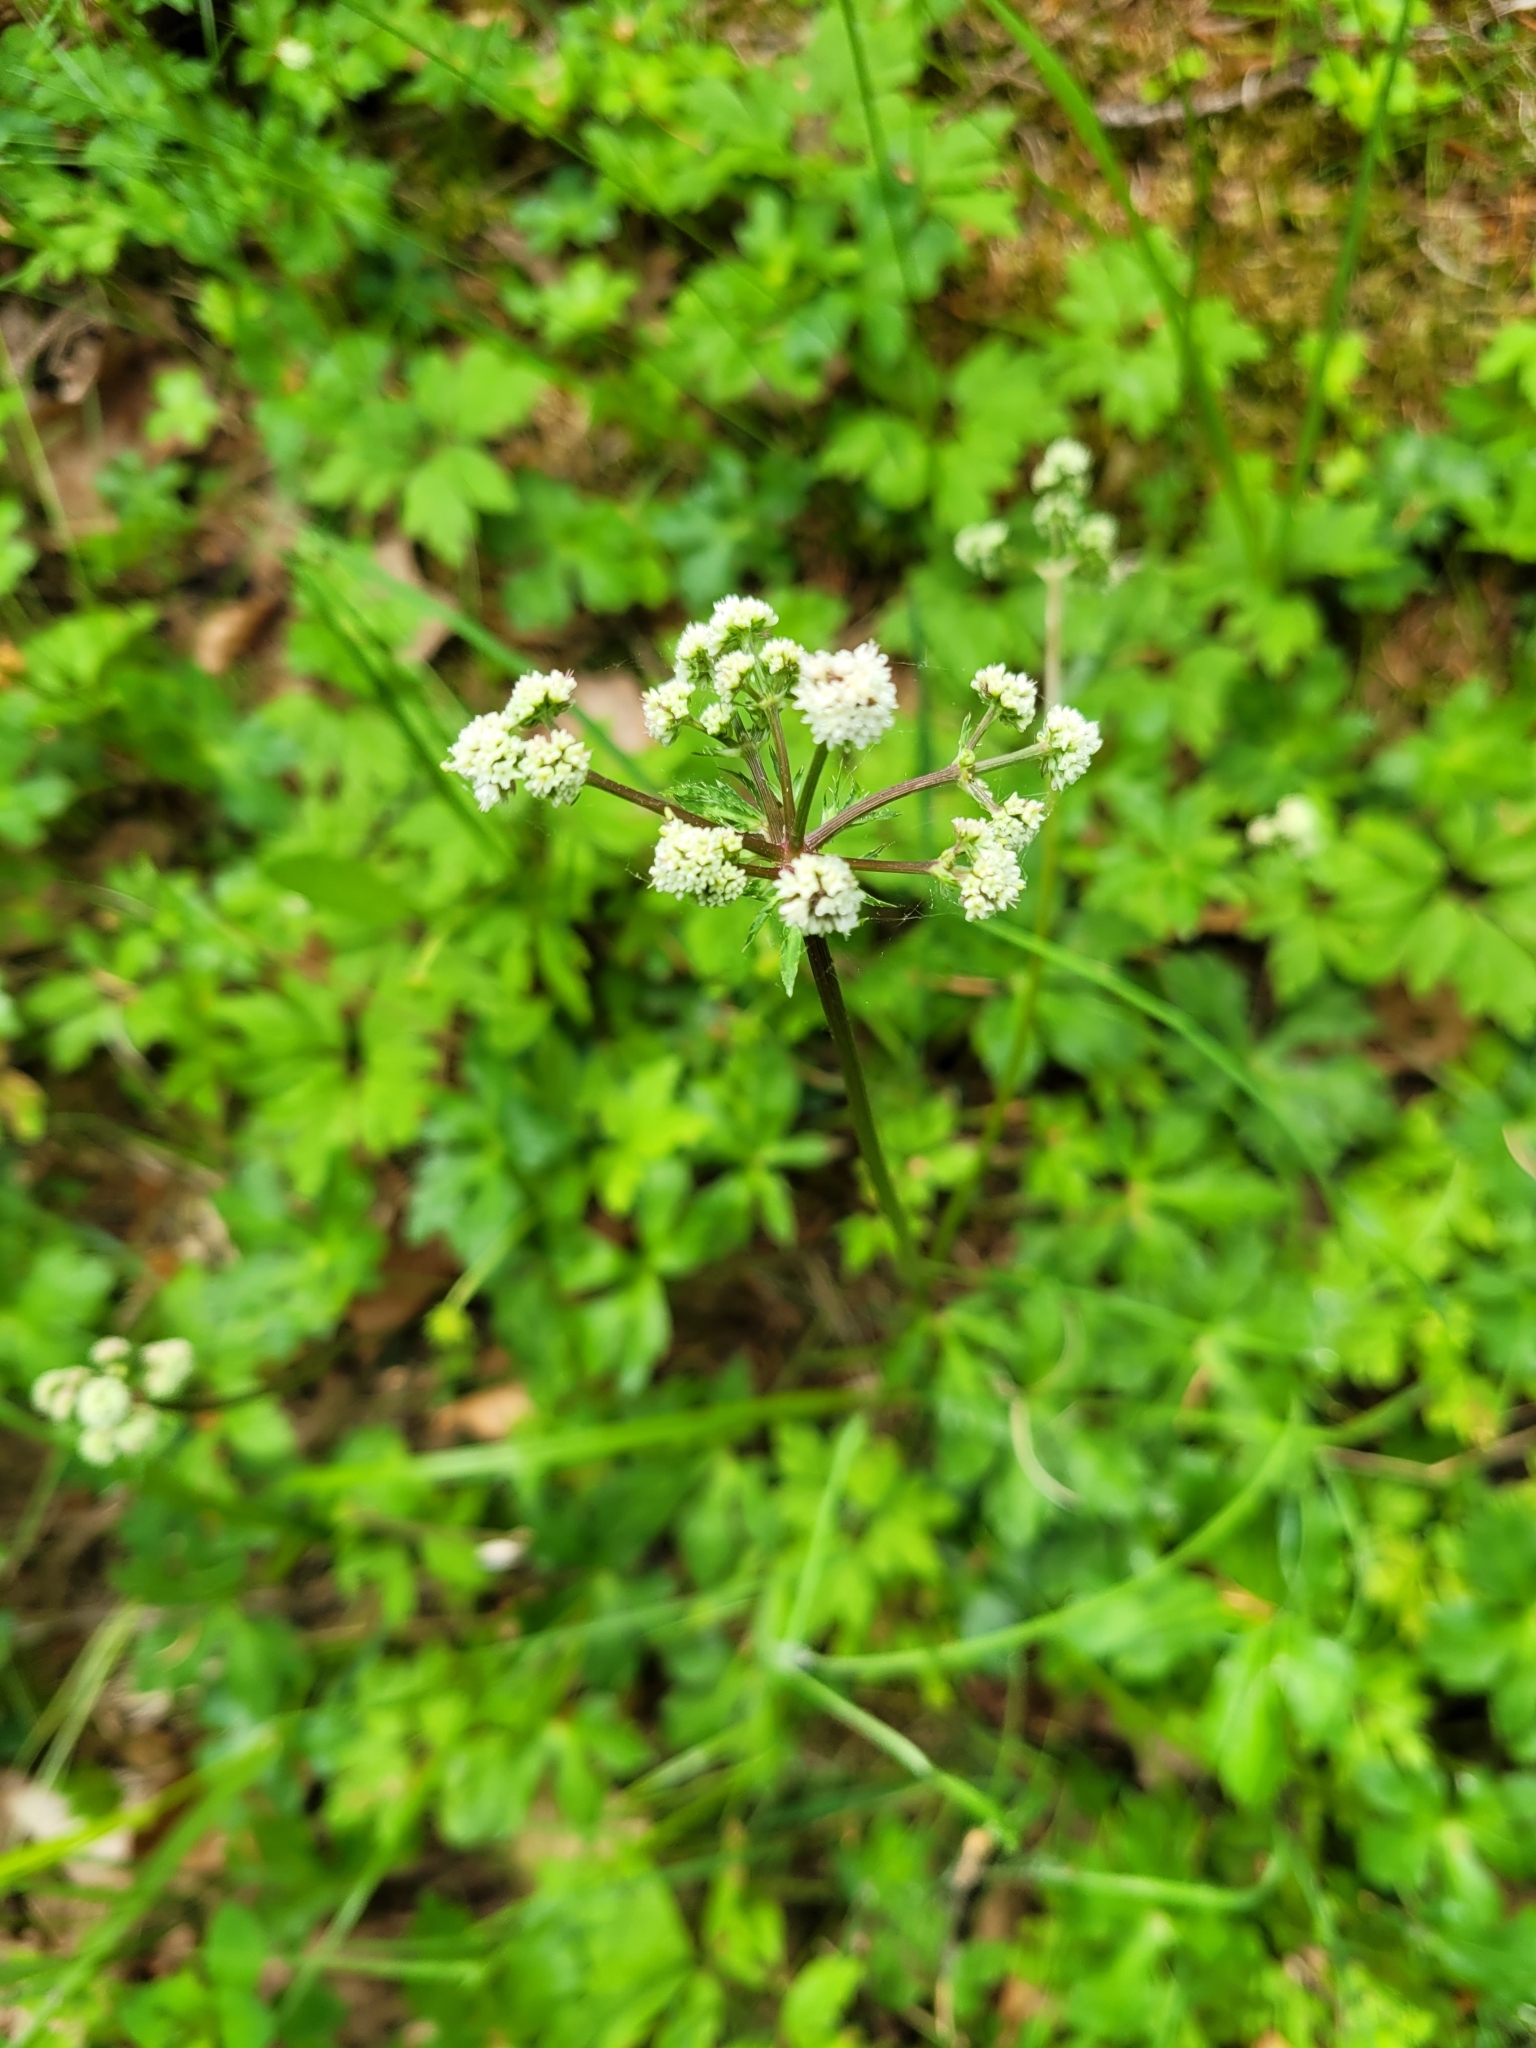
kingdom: Plantae
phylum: Tracheophyta
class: Magnoliopsida
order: Apiales
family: Apiaceae
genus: Sanicula
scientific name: Sanicula europaea
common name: Sanicle
